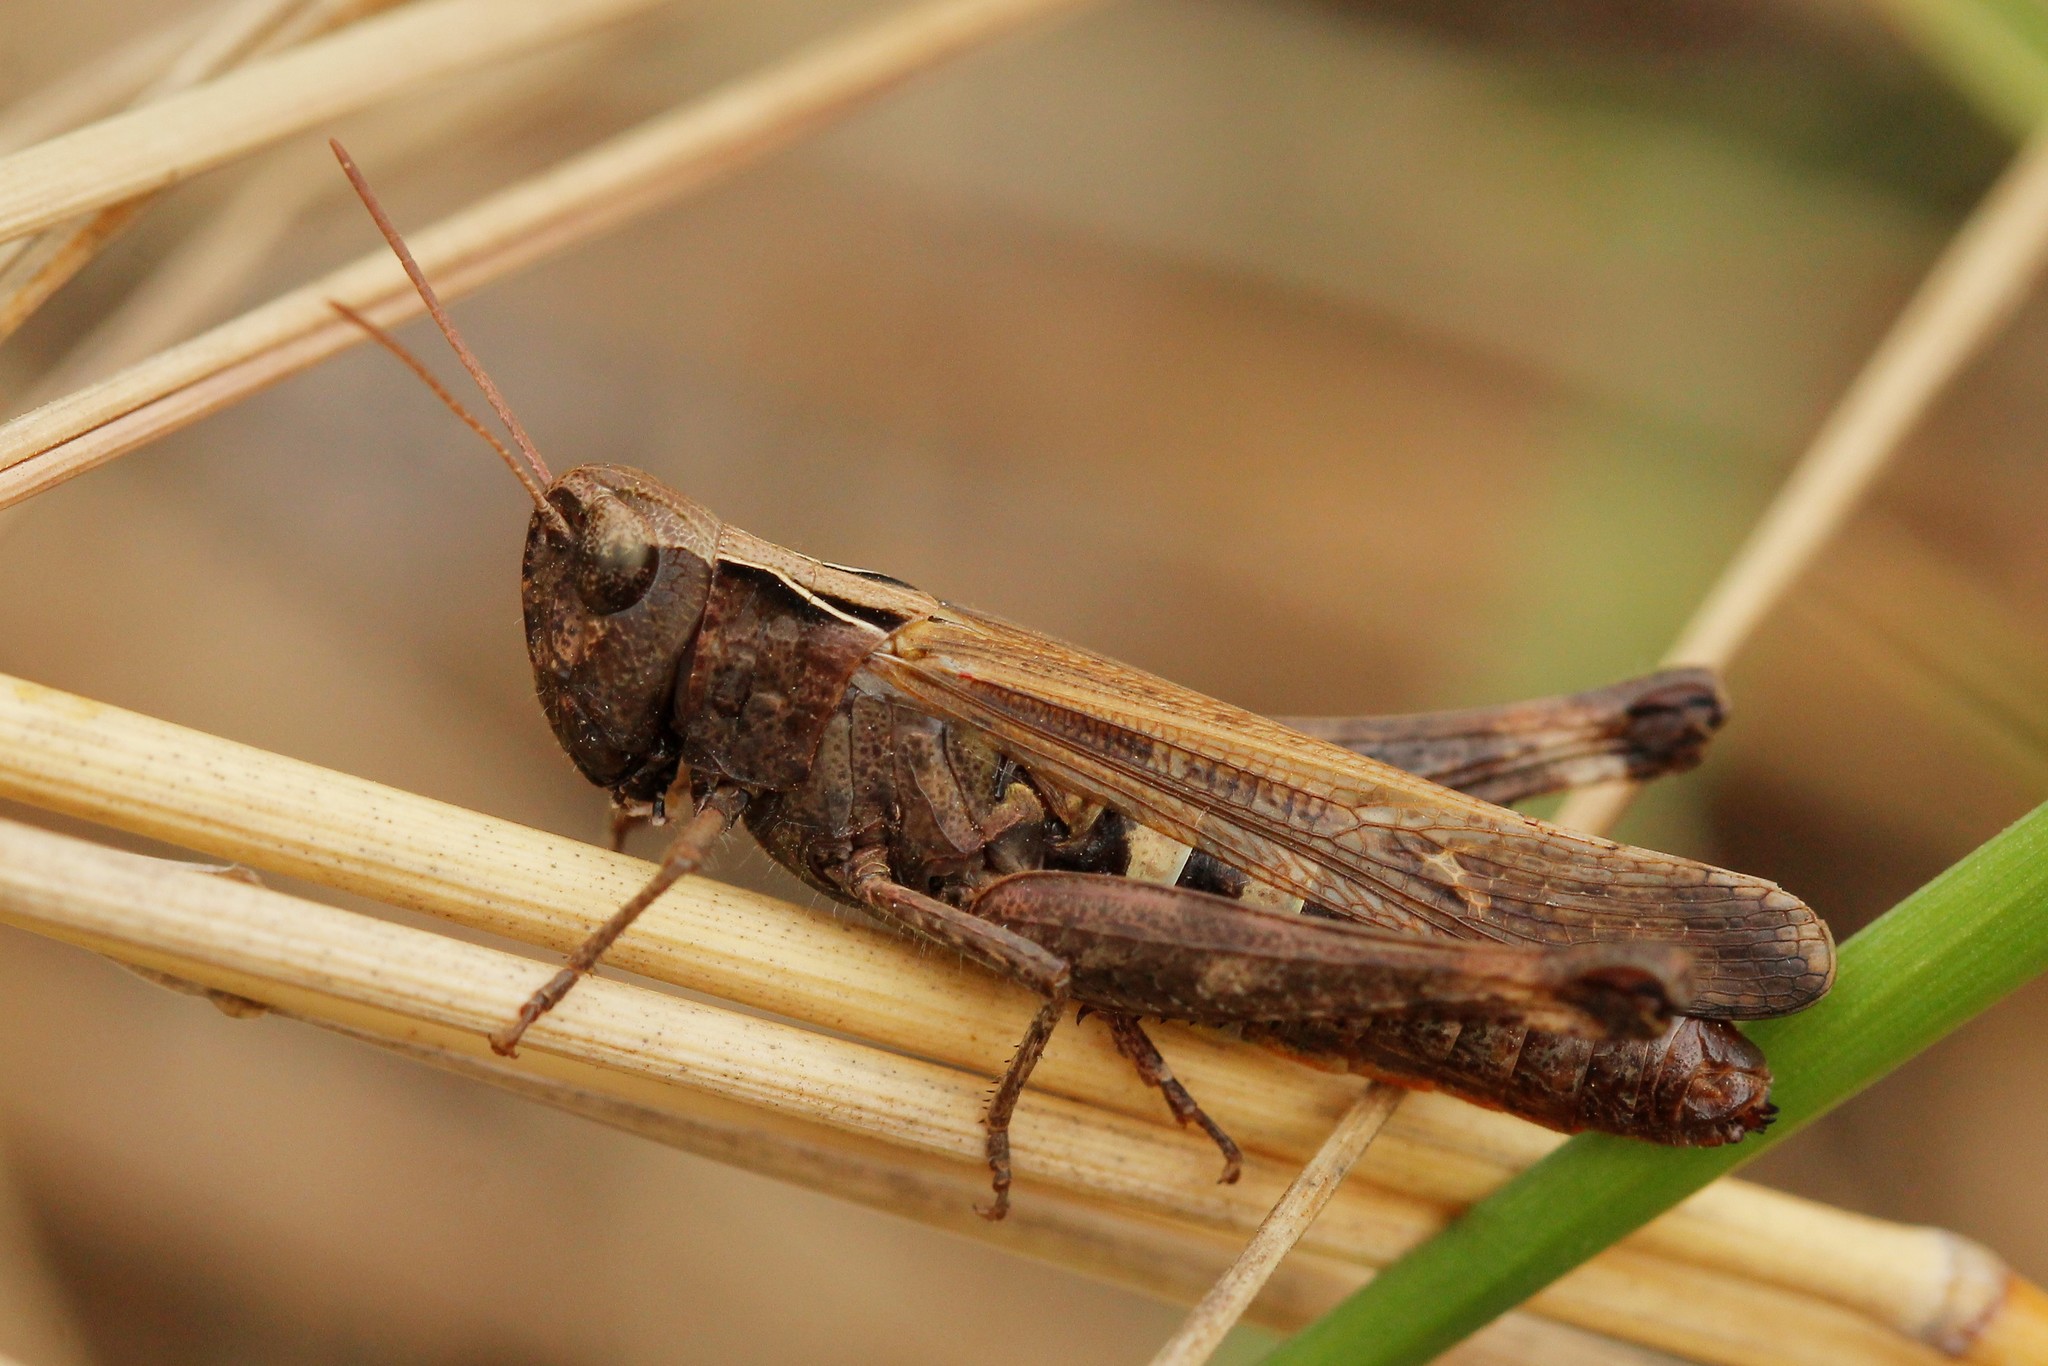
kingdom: Animalia
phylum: Arthropoda
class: Insecta
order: Orthoptera
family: Acrididae
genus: Omocestus
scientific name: Omocestus rufipes
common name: Woodland grasshopper
